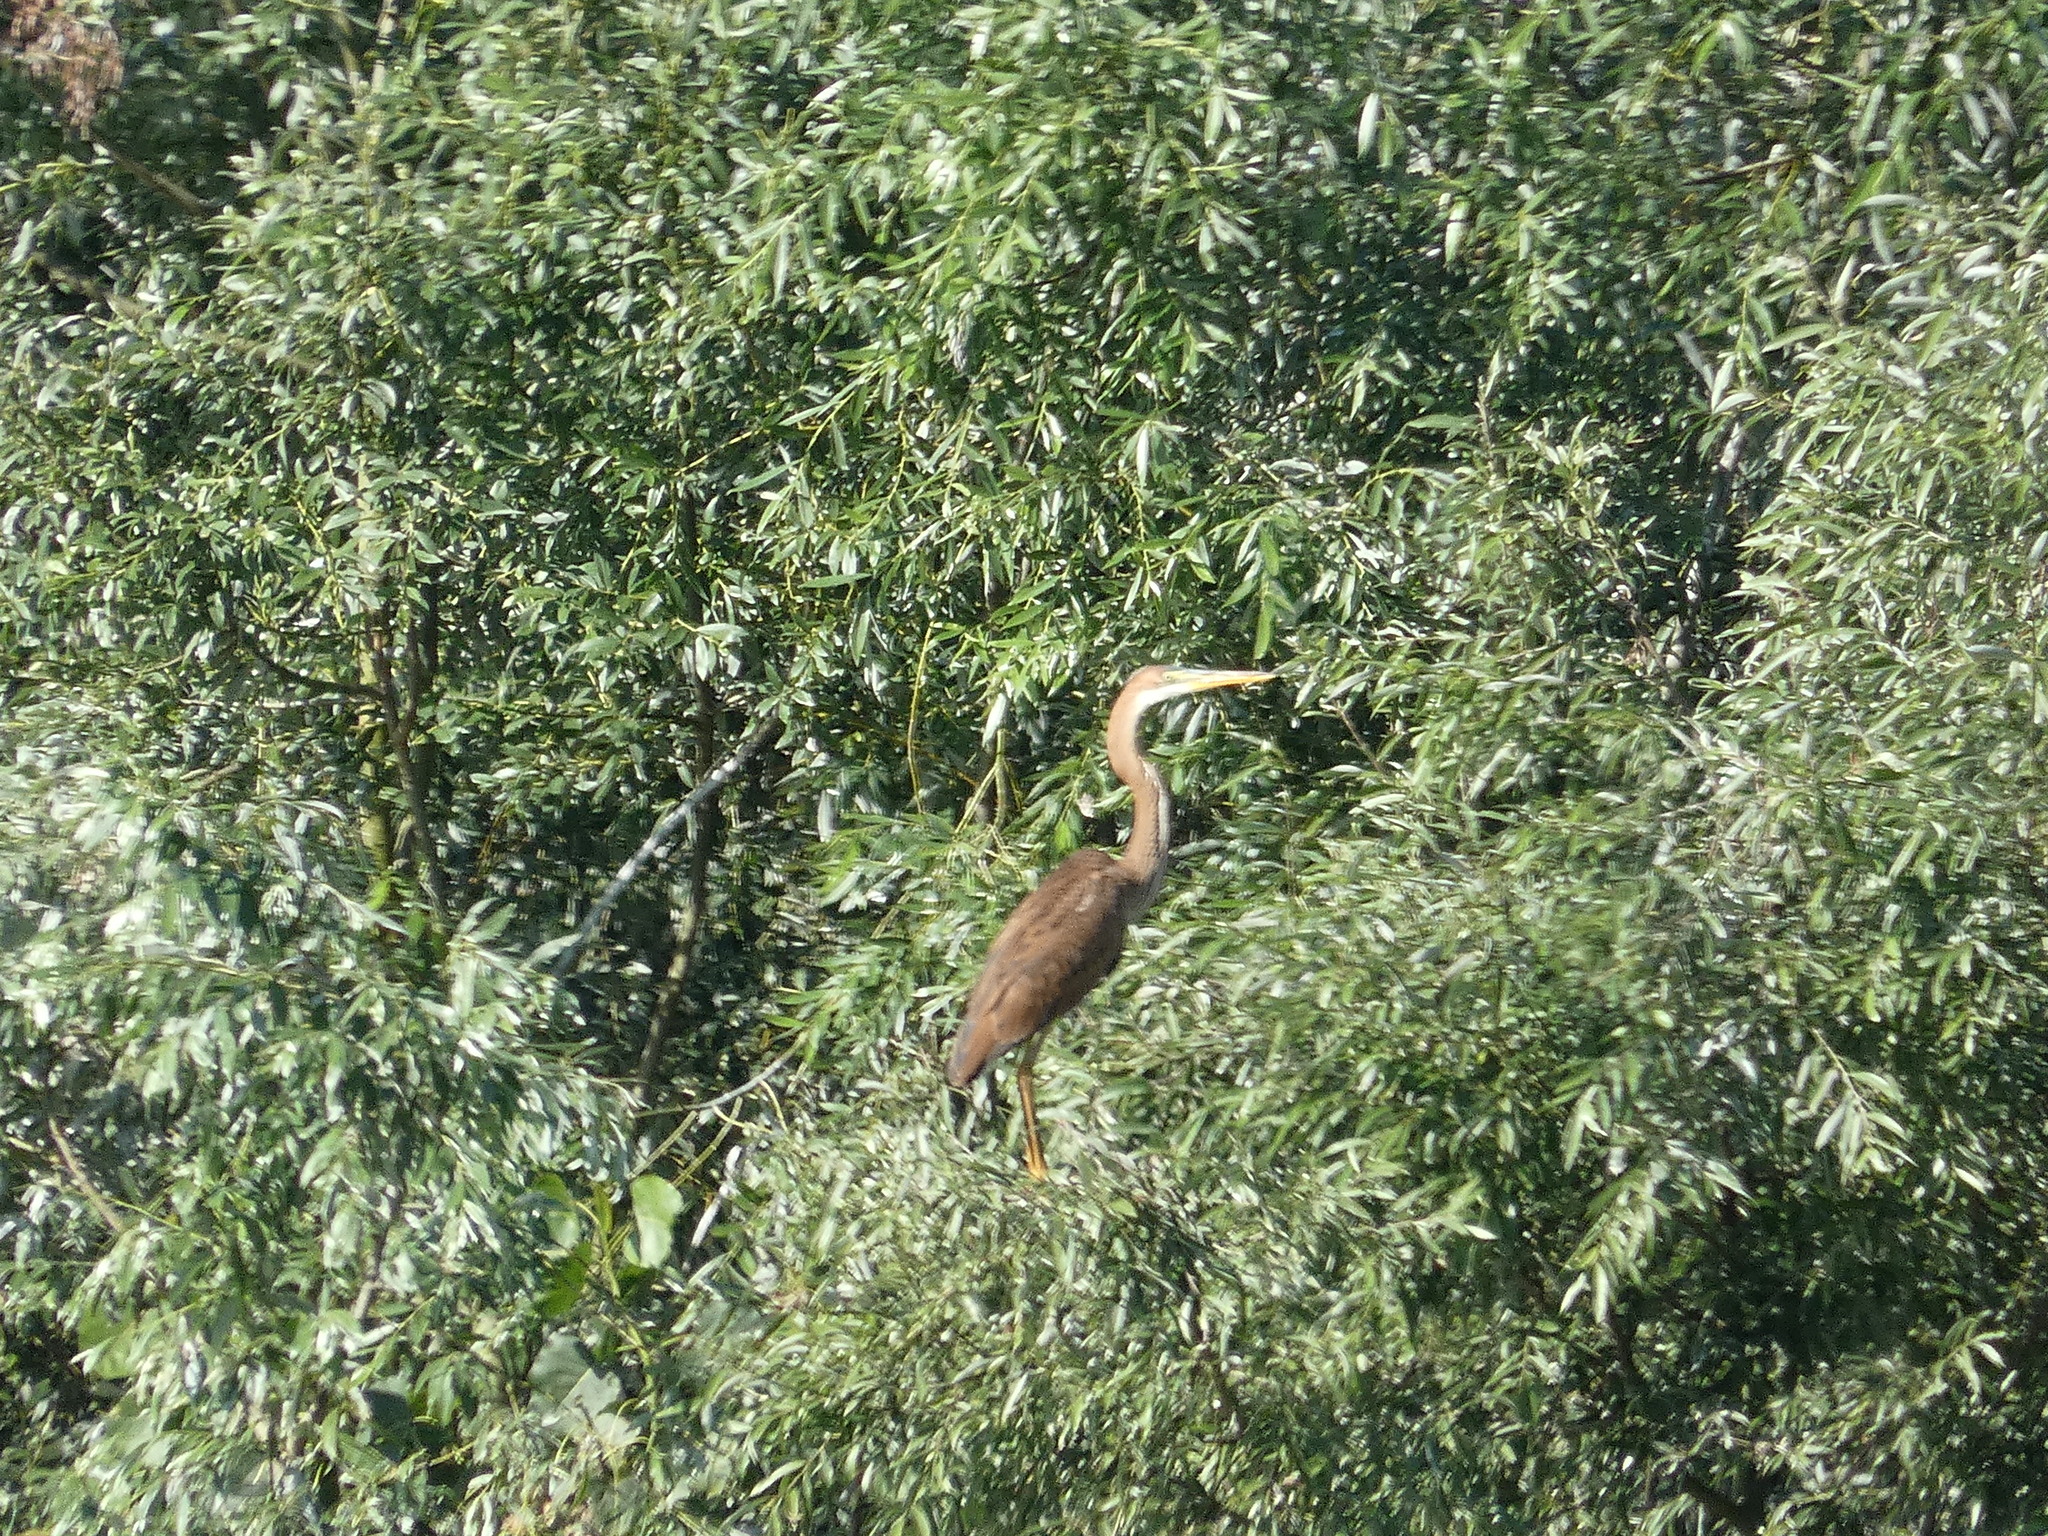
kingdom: Animalia
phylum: Chordata
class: Aves
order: Pelecaniformes
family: Ardeidae
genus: Ardea
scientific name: Ardea purpurea
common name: Purple heron
